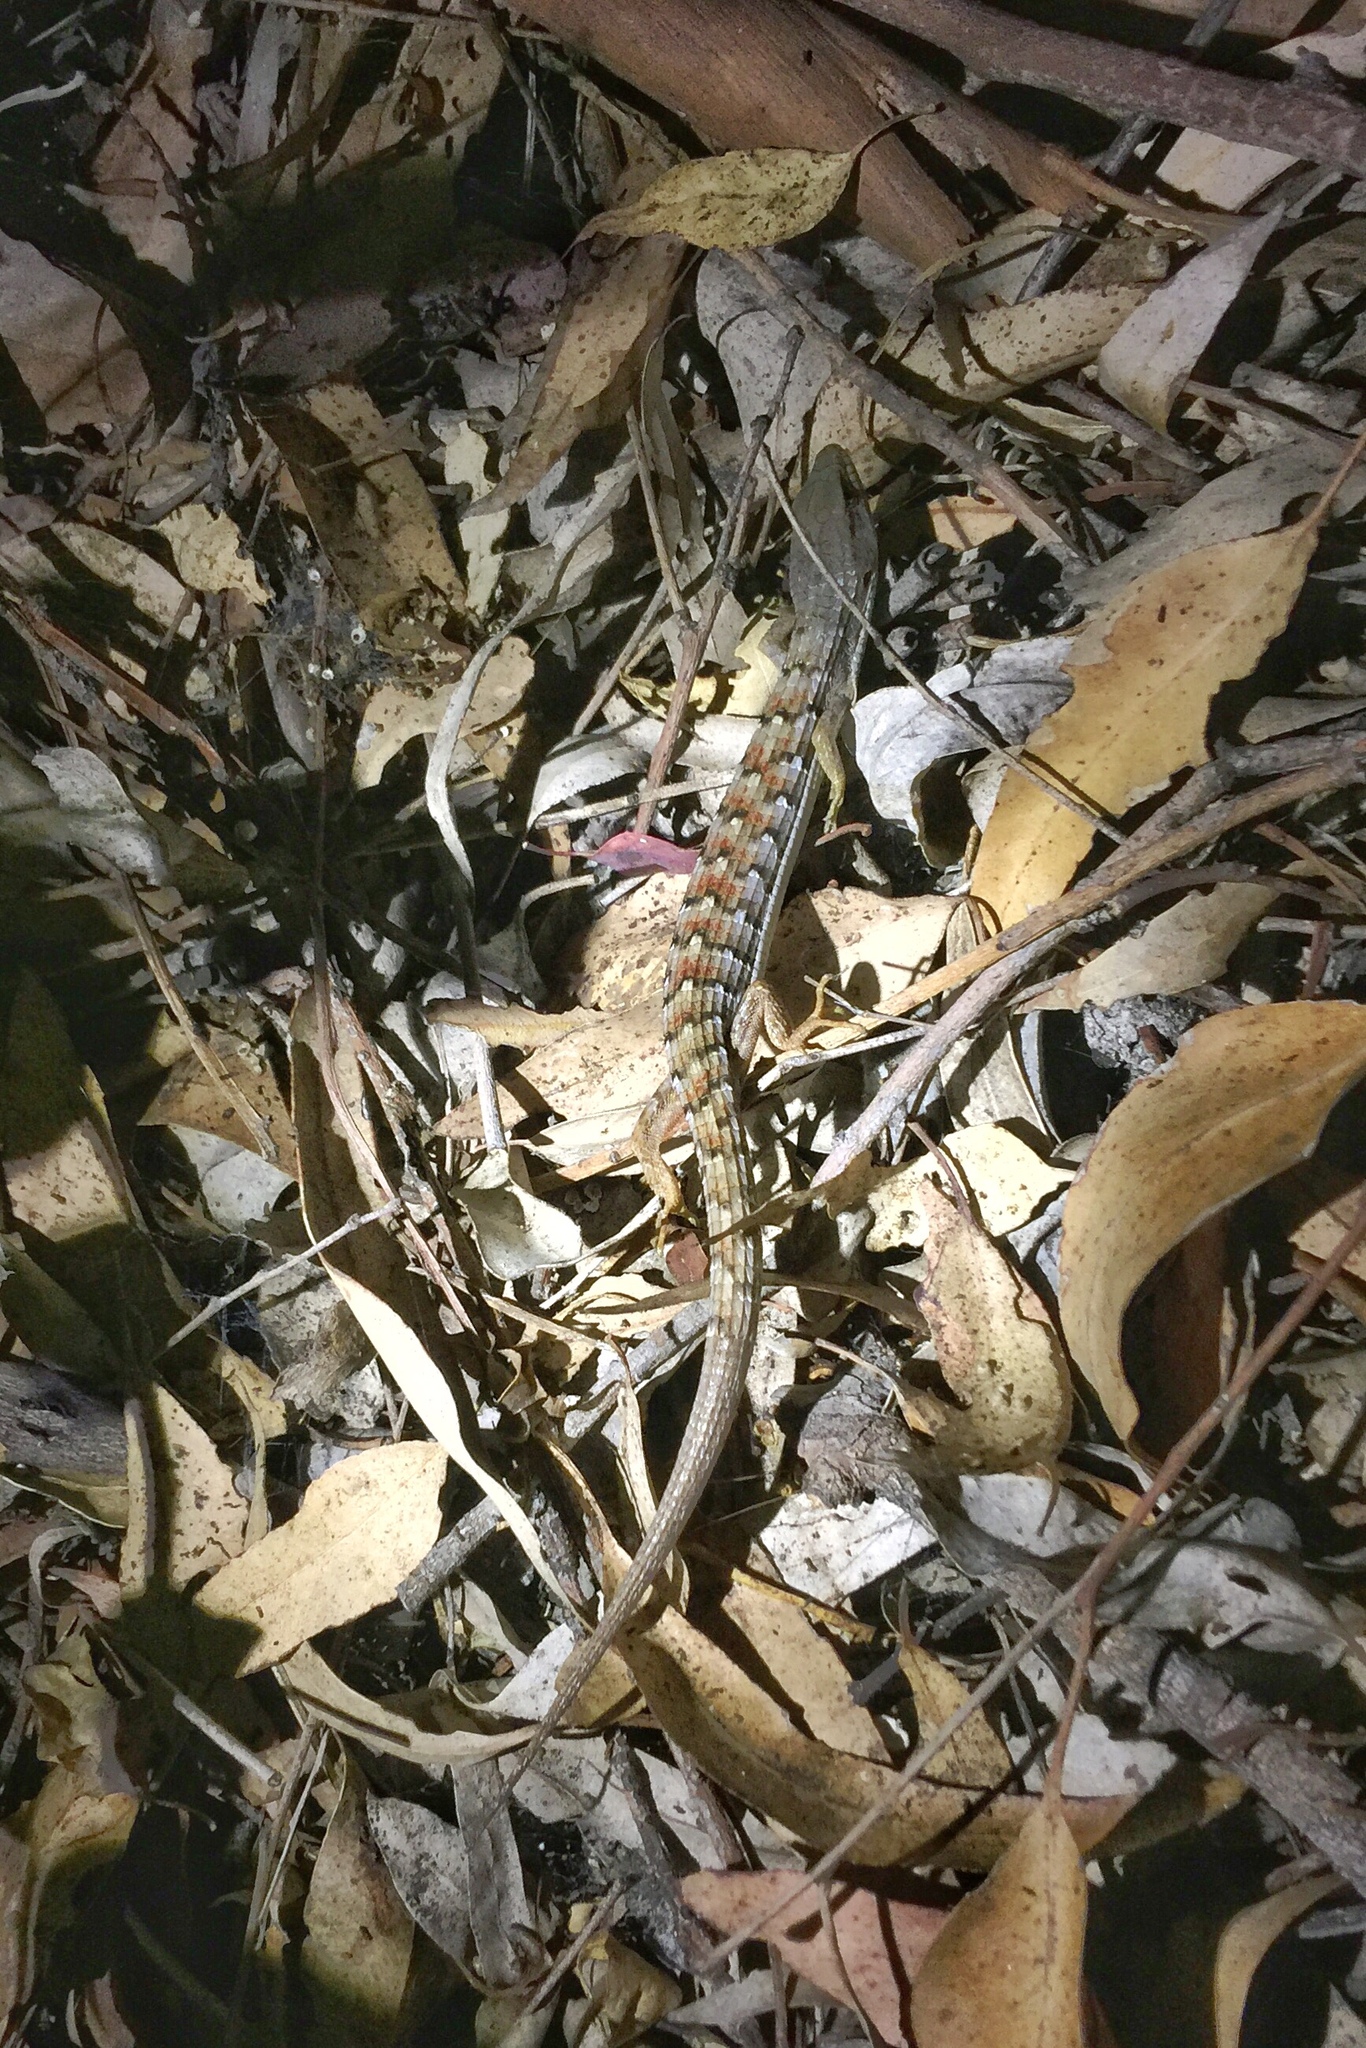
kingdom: Animalia
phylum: Chordata
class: Squamata
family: Anguidae
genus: Elgaria
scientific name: Elgaria multicarinata
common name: Southern alligator lizard
